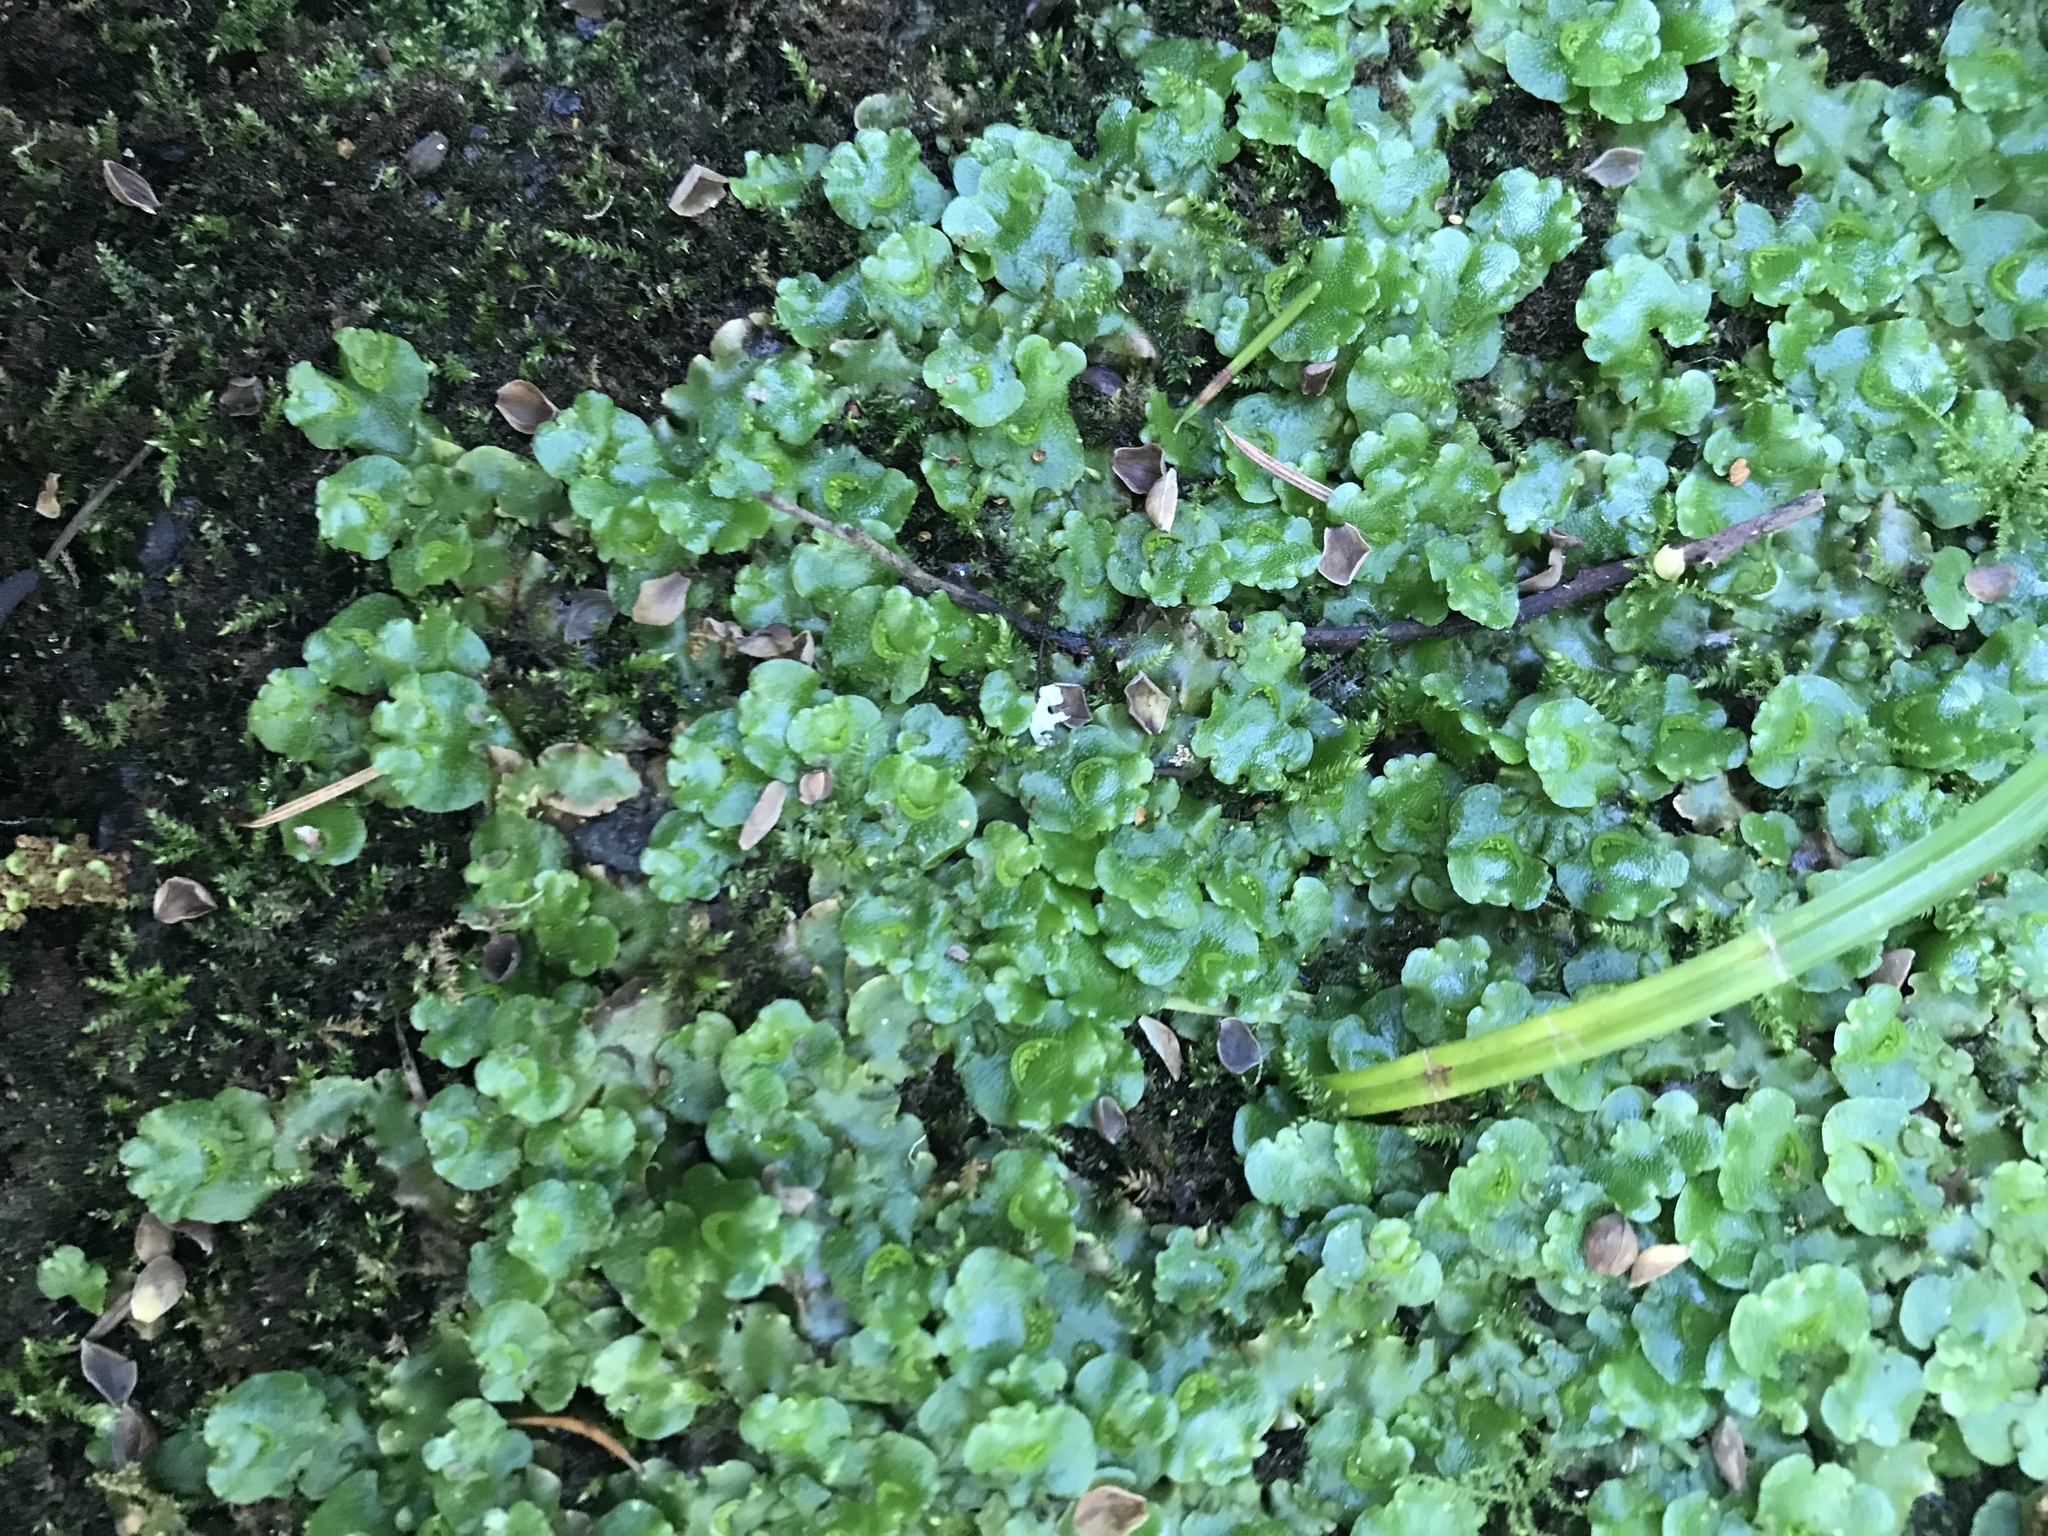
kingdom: Plantae
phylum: Marchantiophyta
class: Marchantiopsida
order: Lunulariales
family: Lunulariaceae
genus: Lunularia
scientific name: Lunularia cruciata
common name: Crescent-cup liverwort
